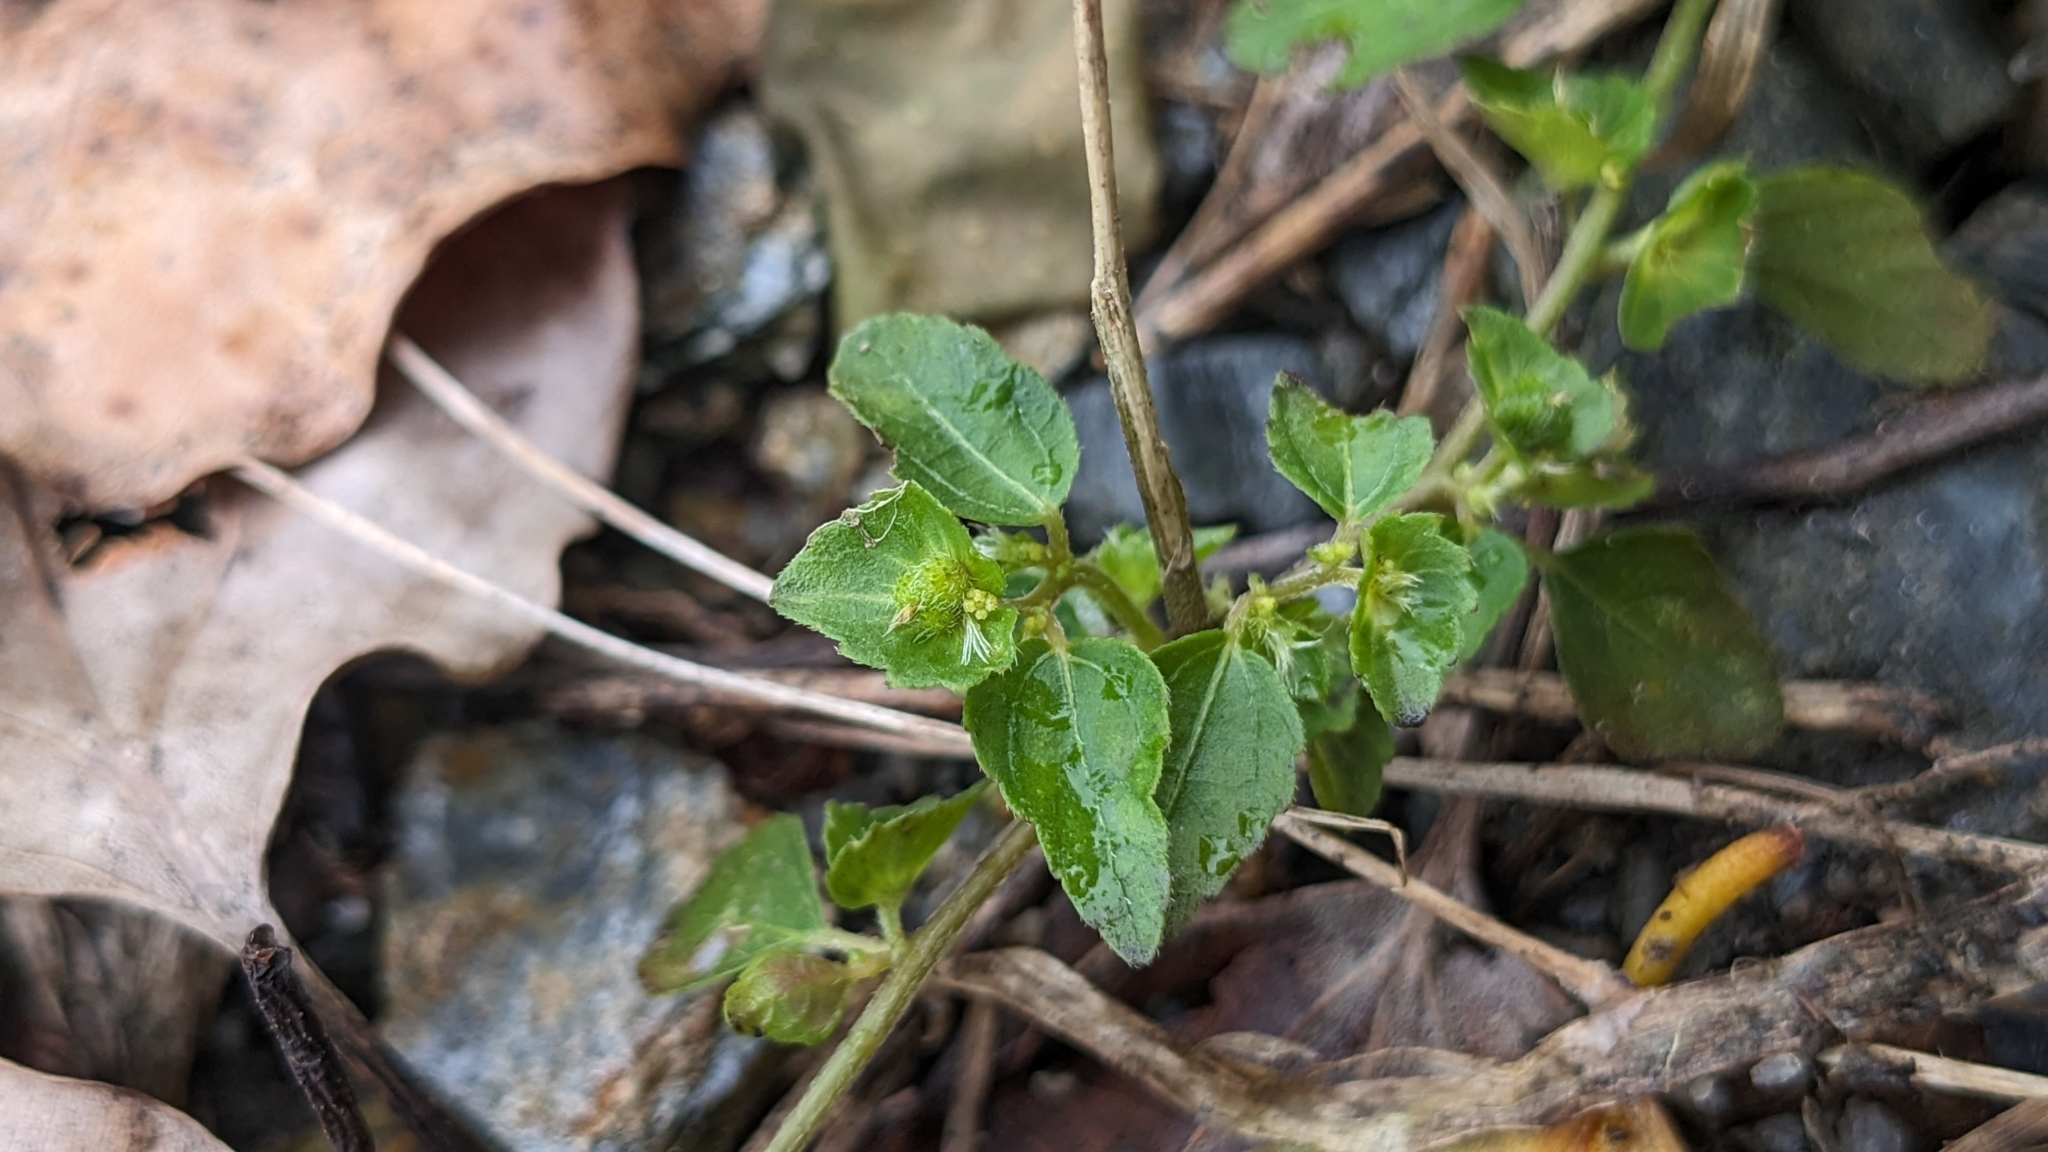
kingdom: Plantae
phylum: Tracheophyta
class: Magnoliopsida
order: Malpighiales
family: Euphorbiaceae
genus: Acalypha
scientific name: Acalypha australis
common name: Asian copperleaf
